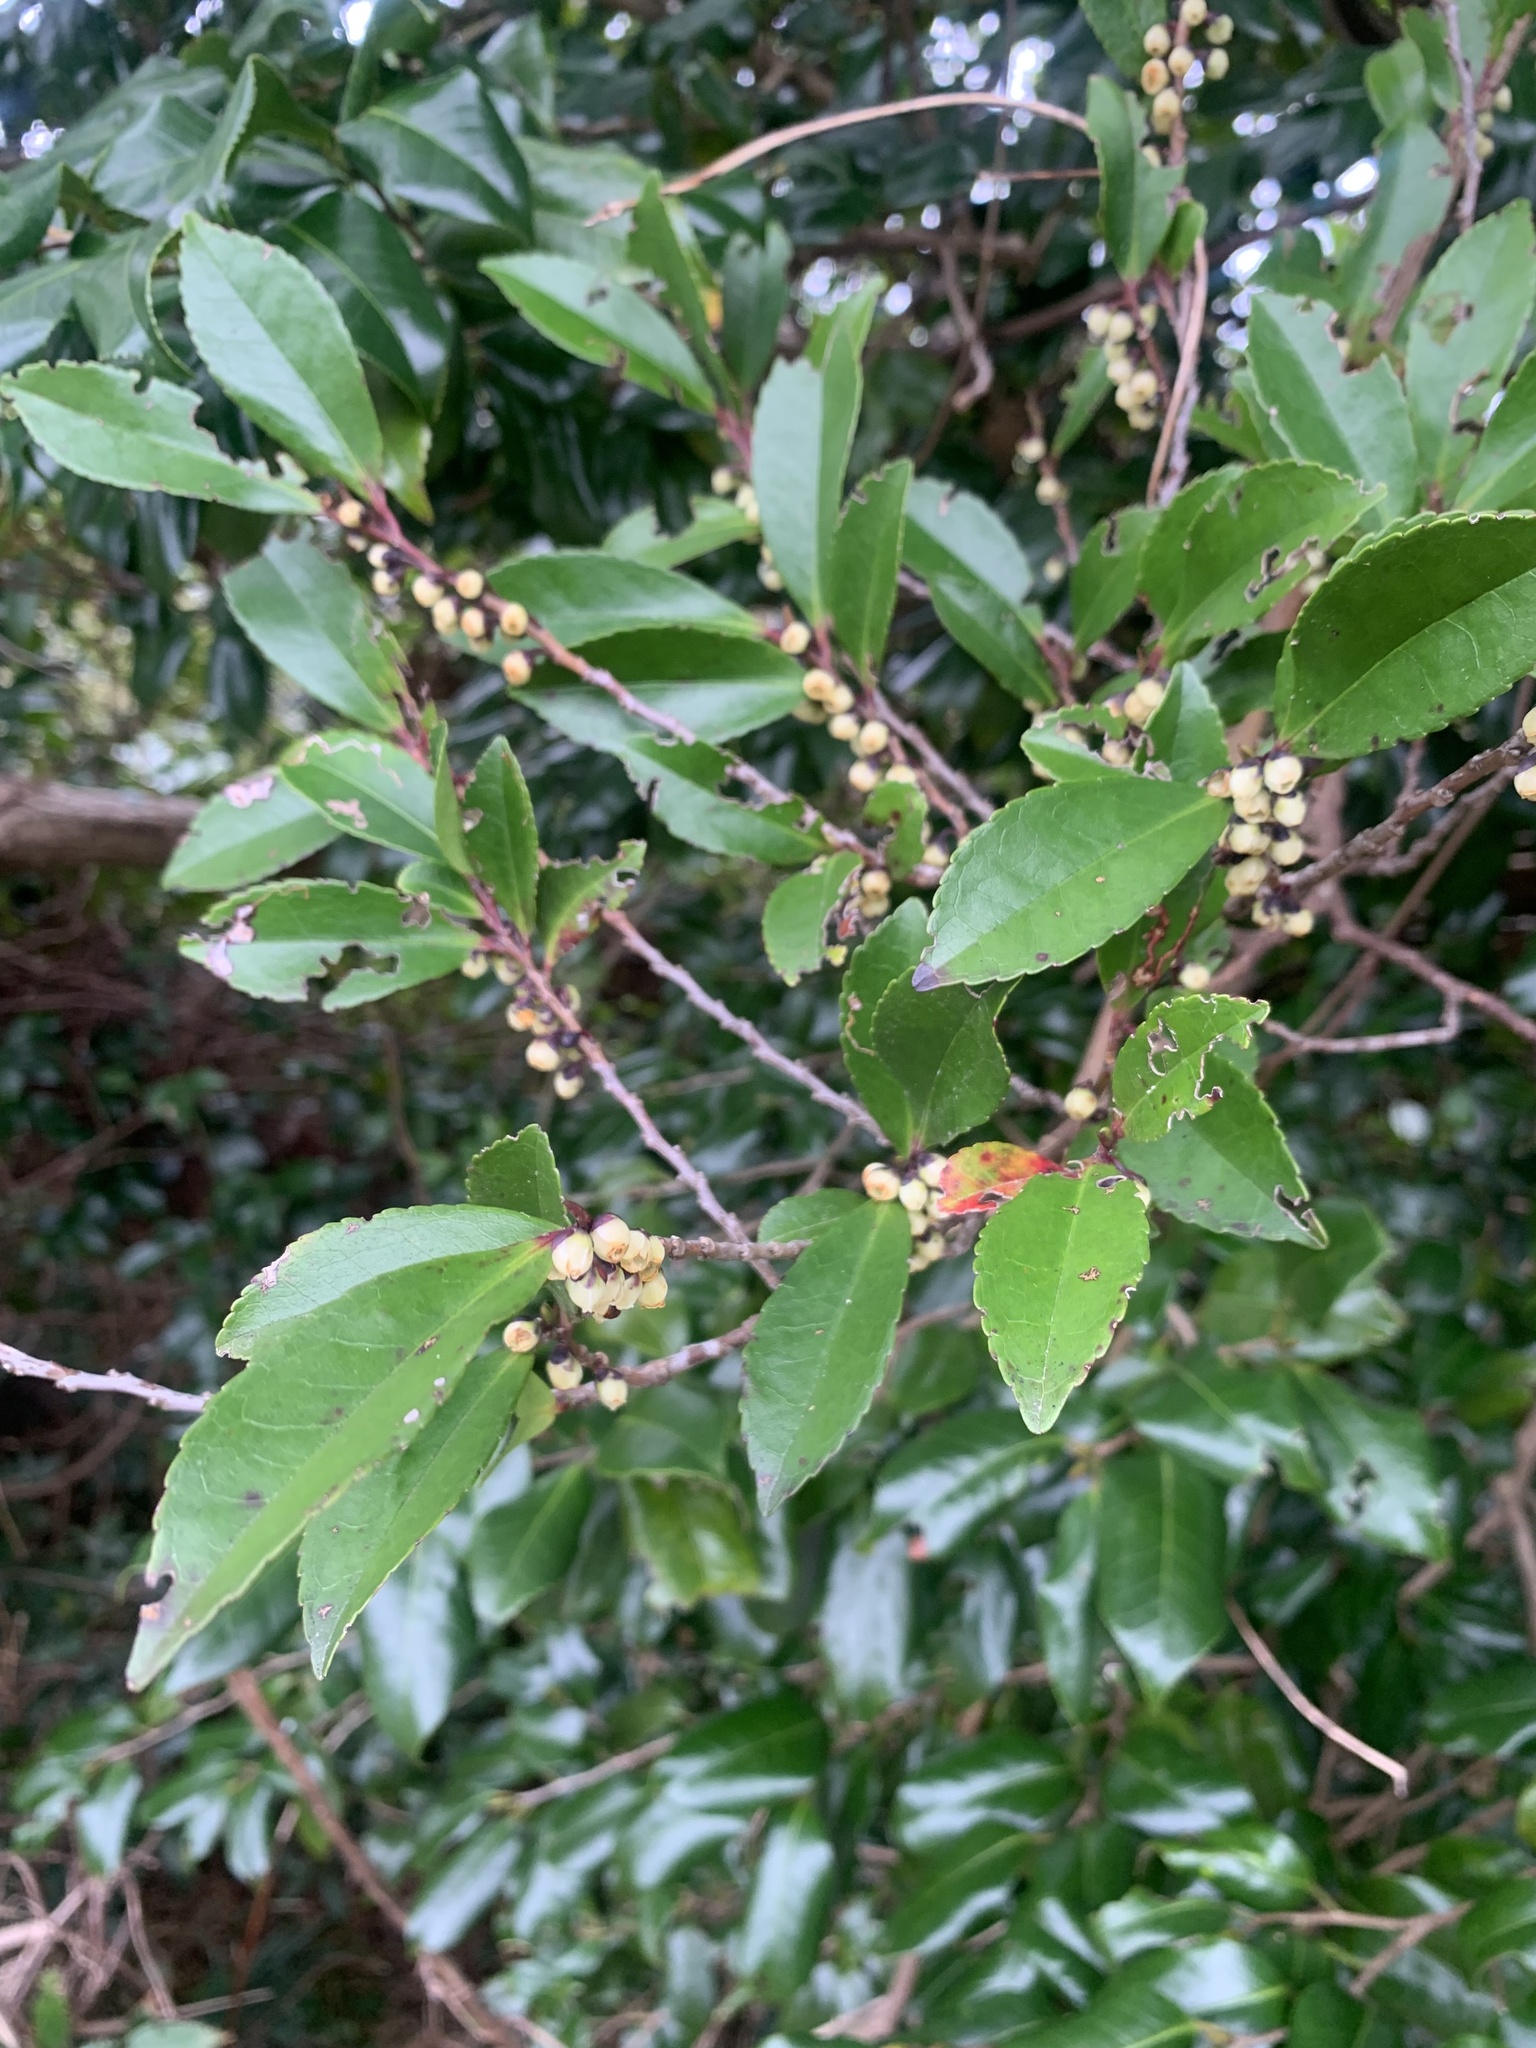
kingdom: Plantae
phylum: Tracheophyta
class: Magnoliopsida
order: Ericales
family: Pentaphylacaceae
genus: Eurya
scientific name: Eurya japonica
